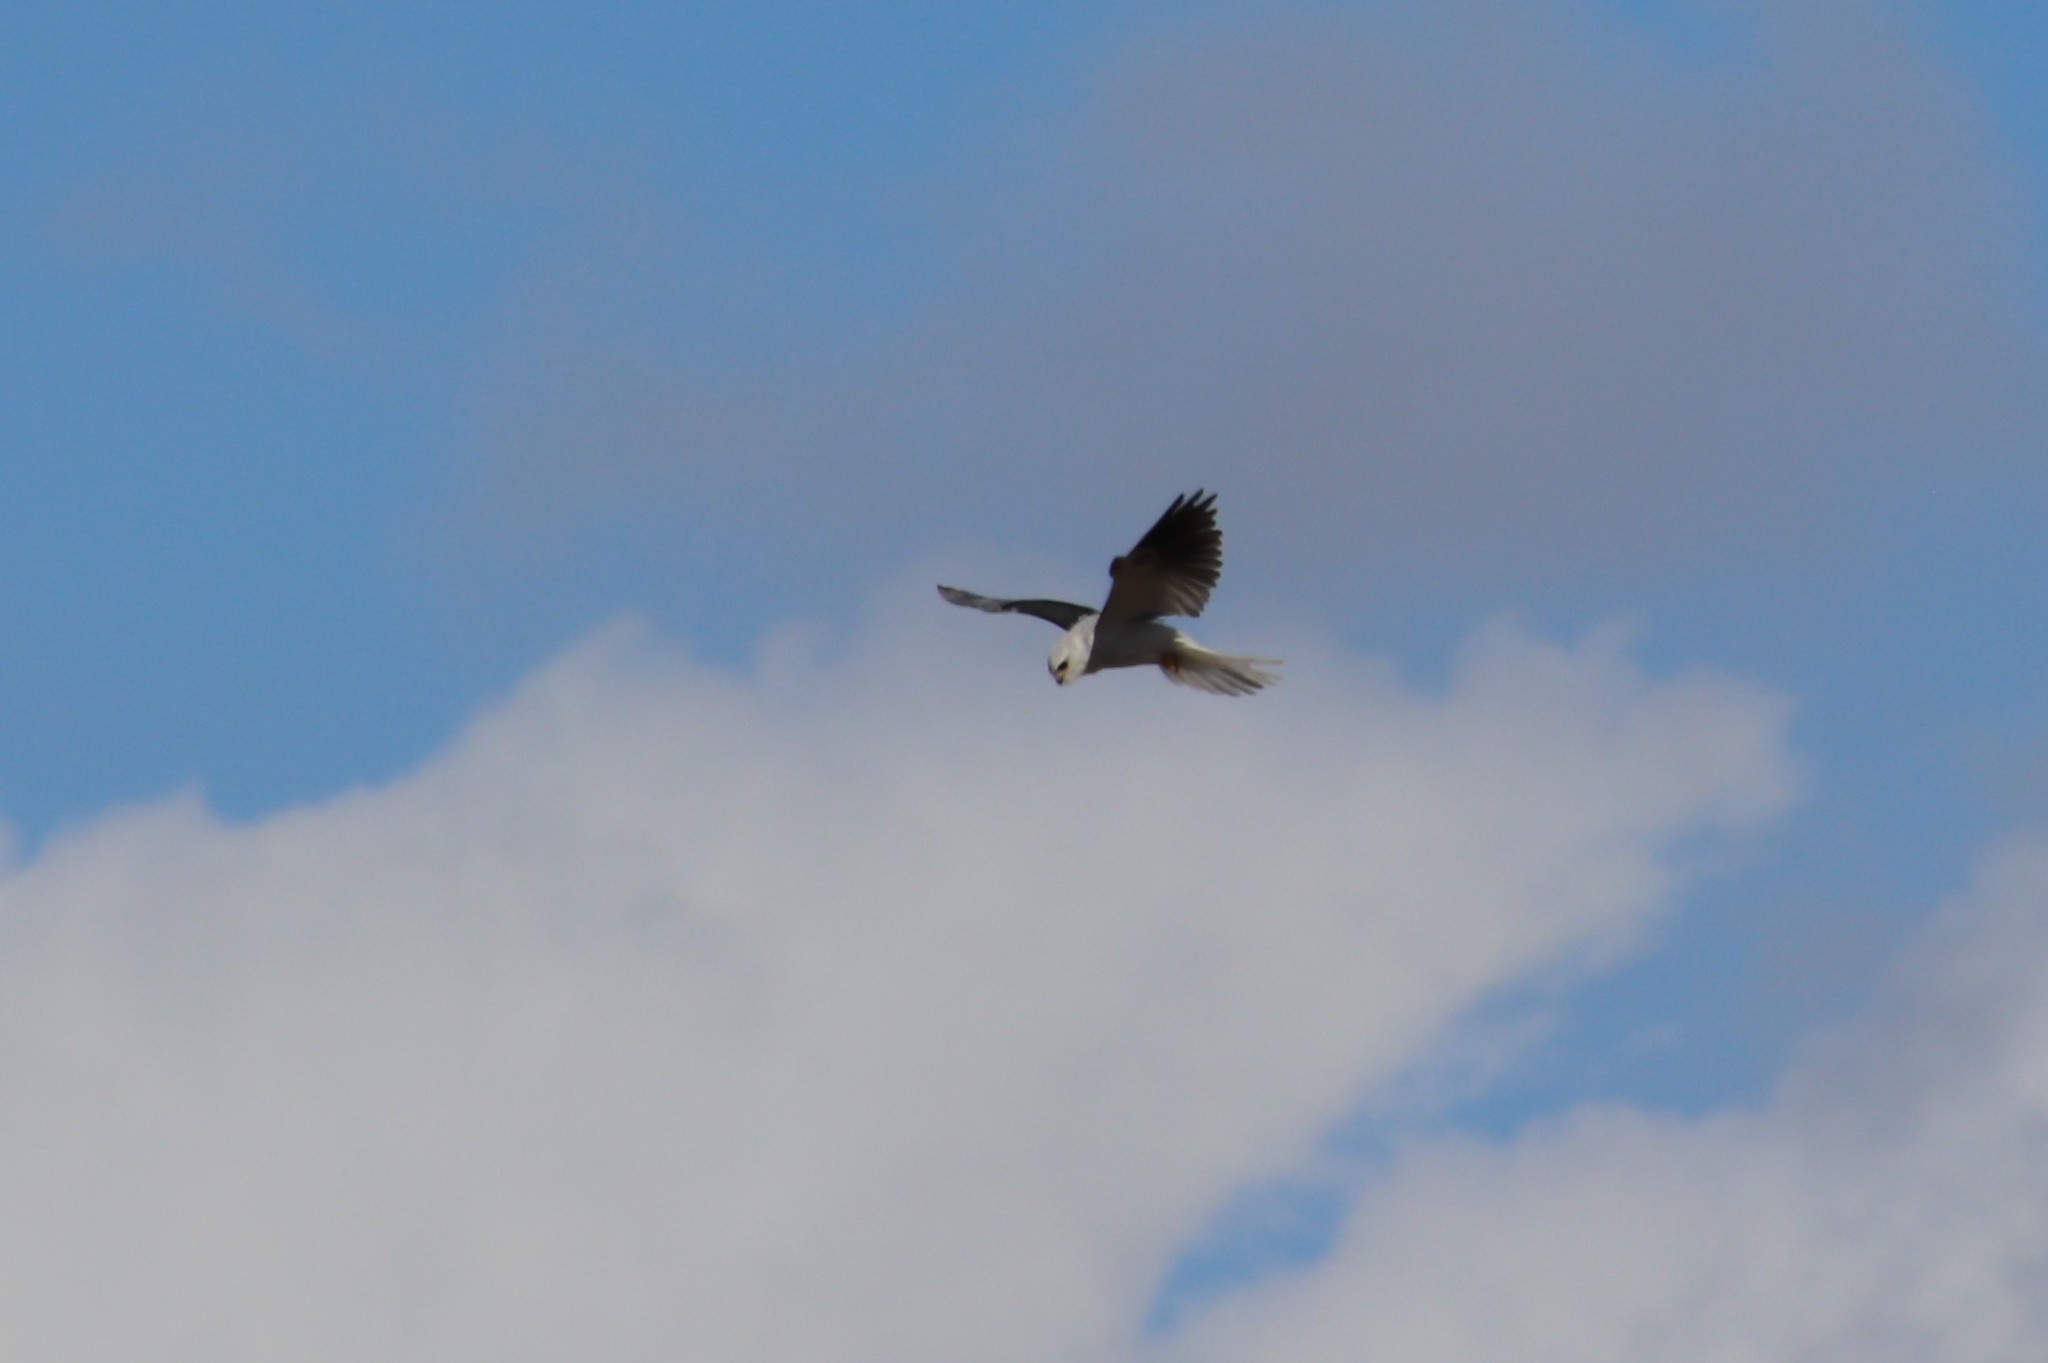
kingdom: Animalia
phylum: Chordata
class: Aves
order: Accipitriformes
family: Accipitridae
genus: Elanus
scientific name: Elanus leucurus
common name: White-tailed kite
